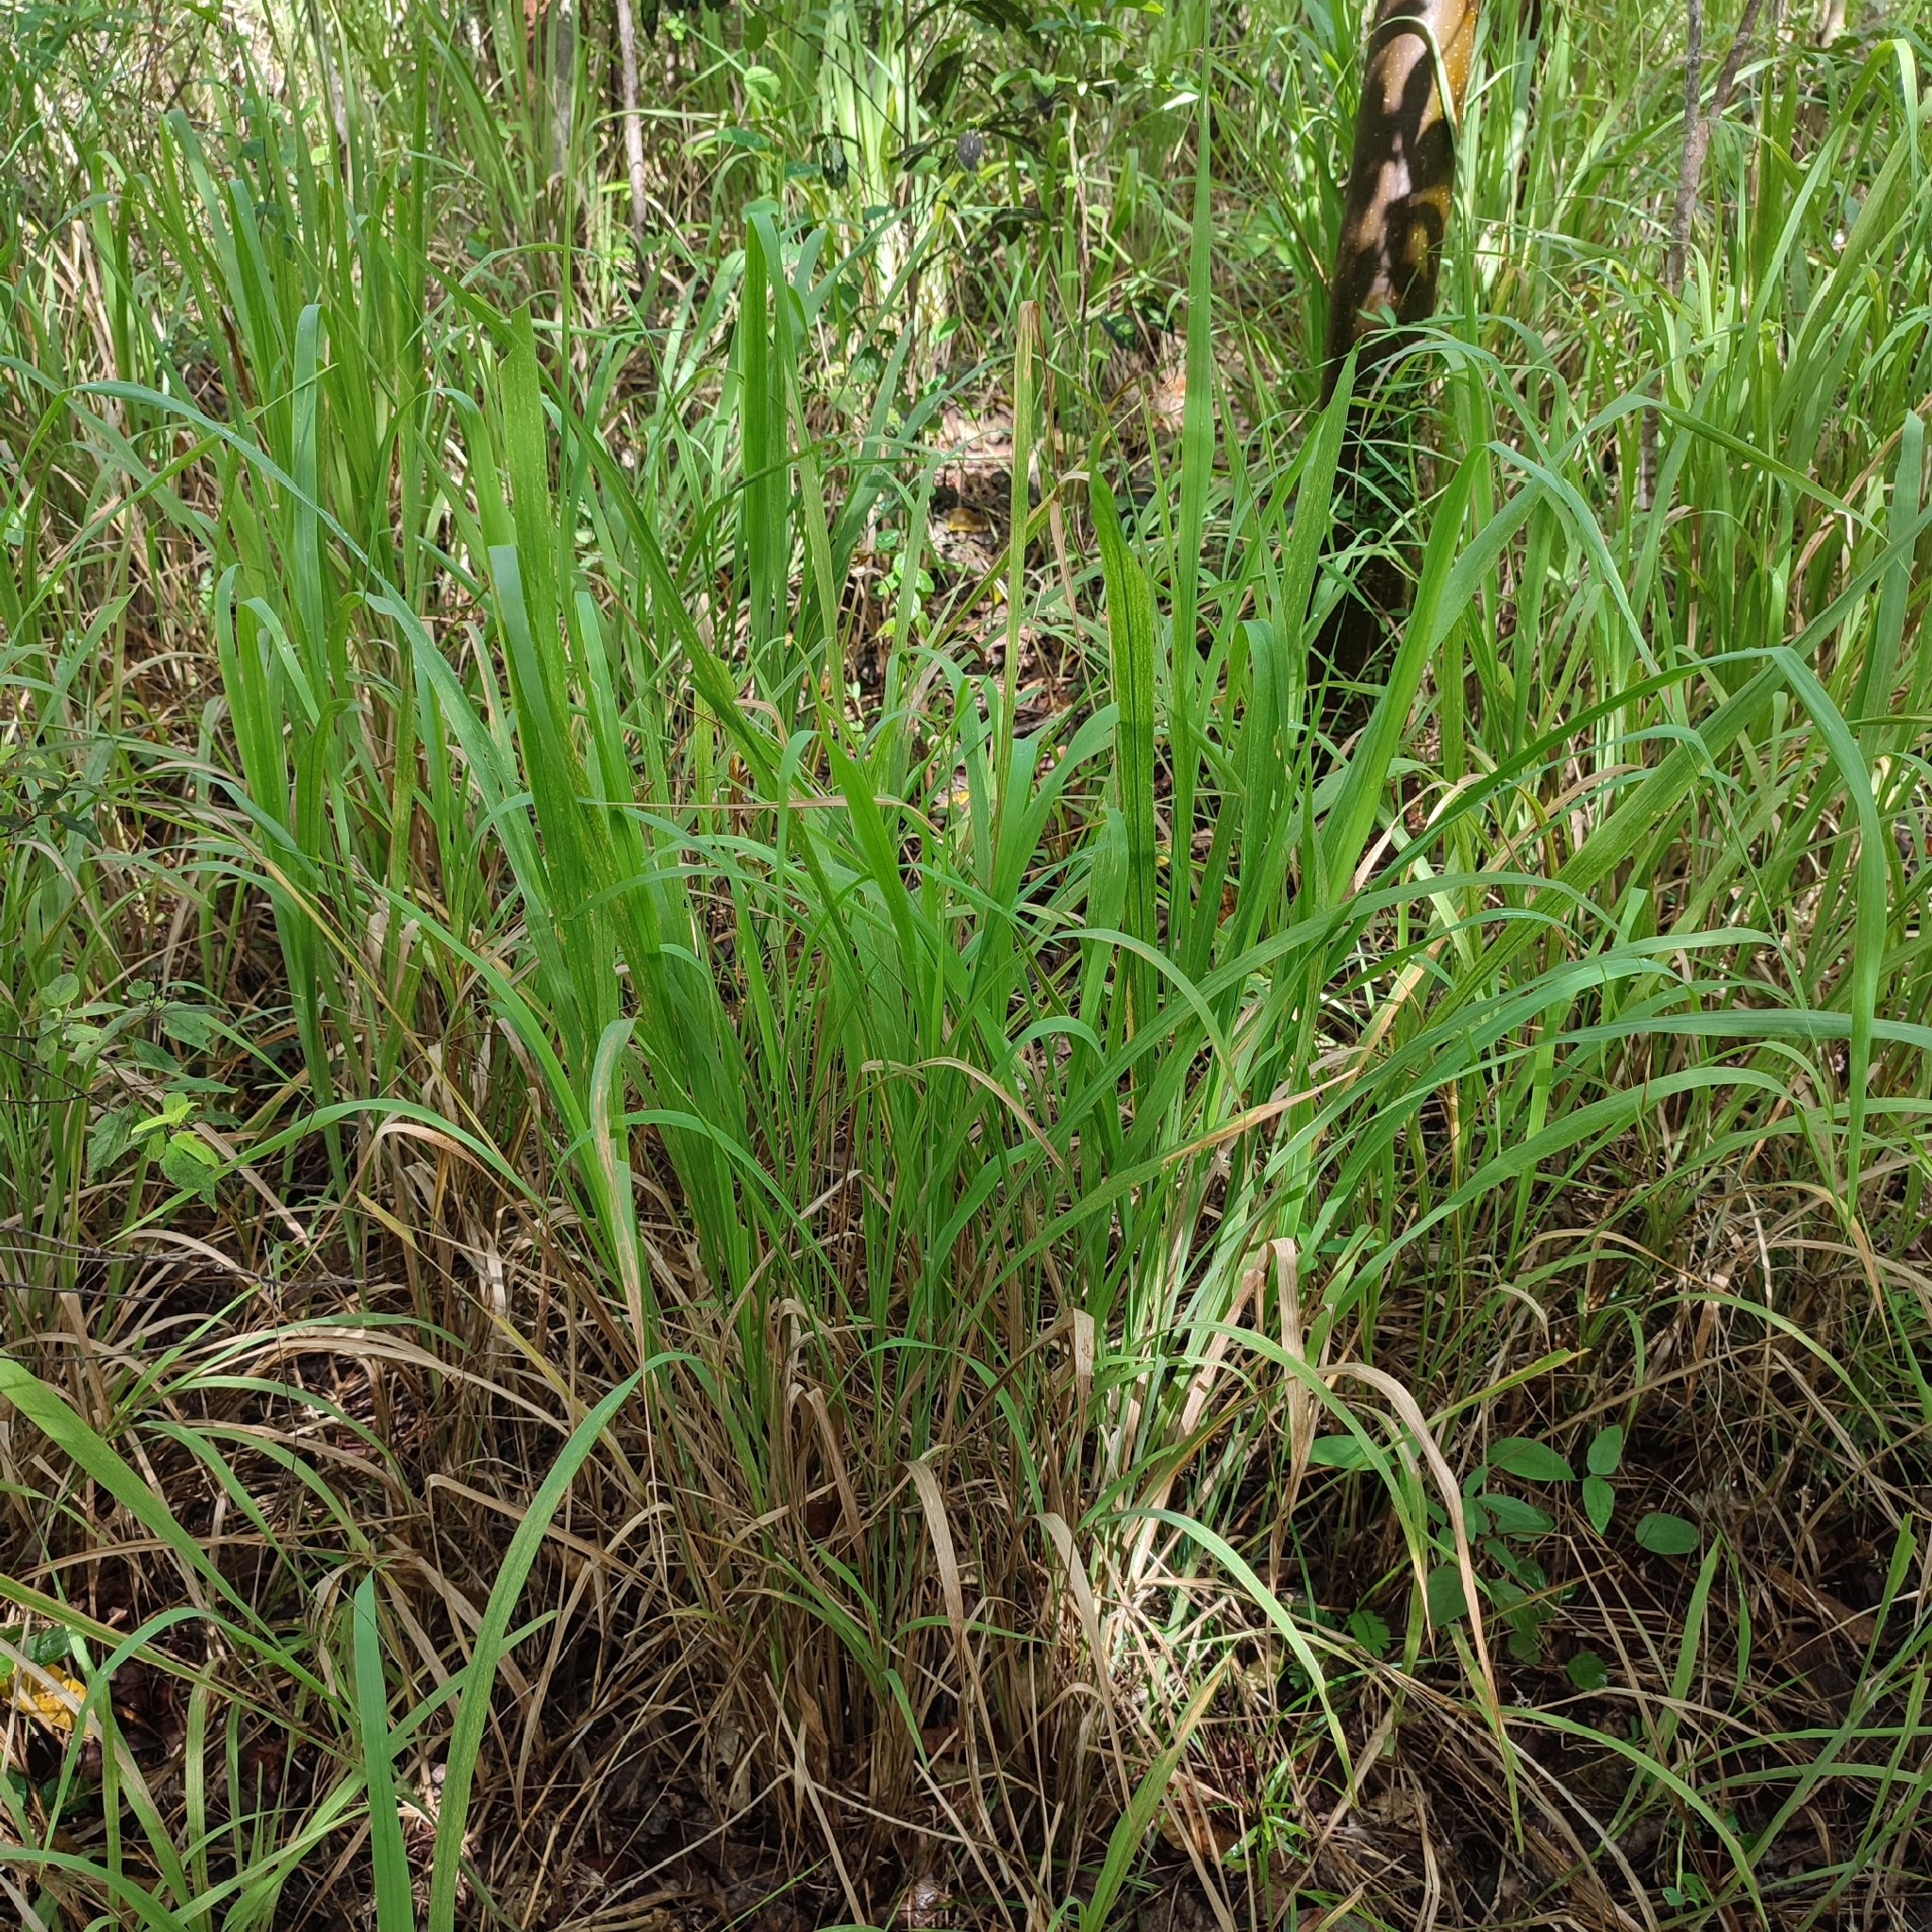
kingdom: Plantae
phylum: Tracheophyta
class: Liliopsida
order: Poales
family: Poaceae
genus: Megathyrsus
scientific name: Megathyrsus maximus
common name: Guineagrass
